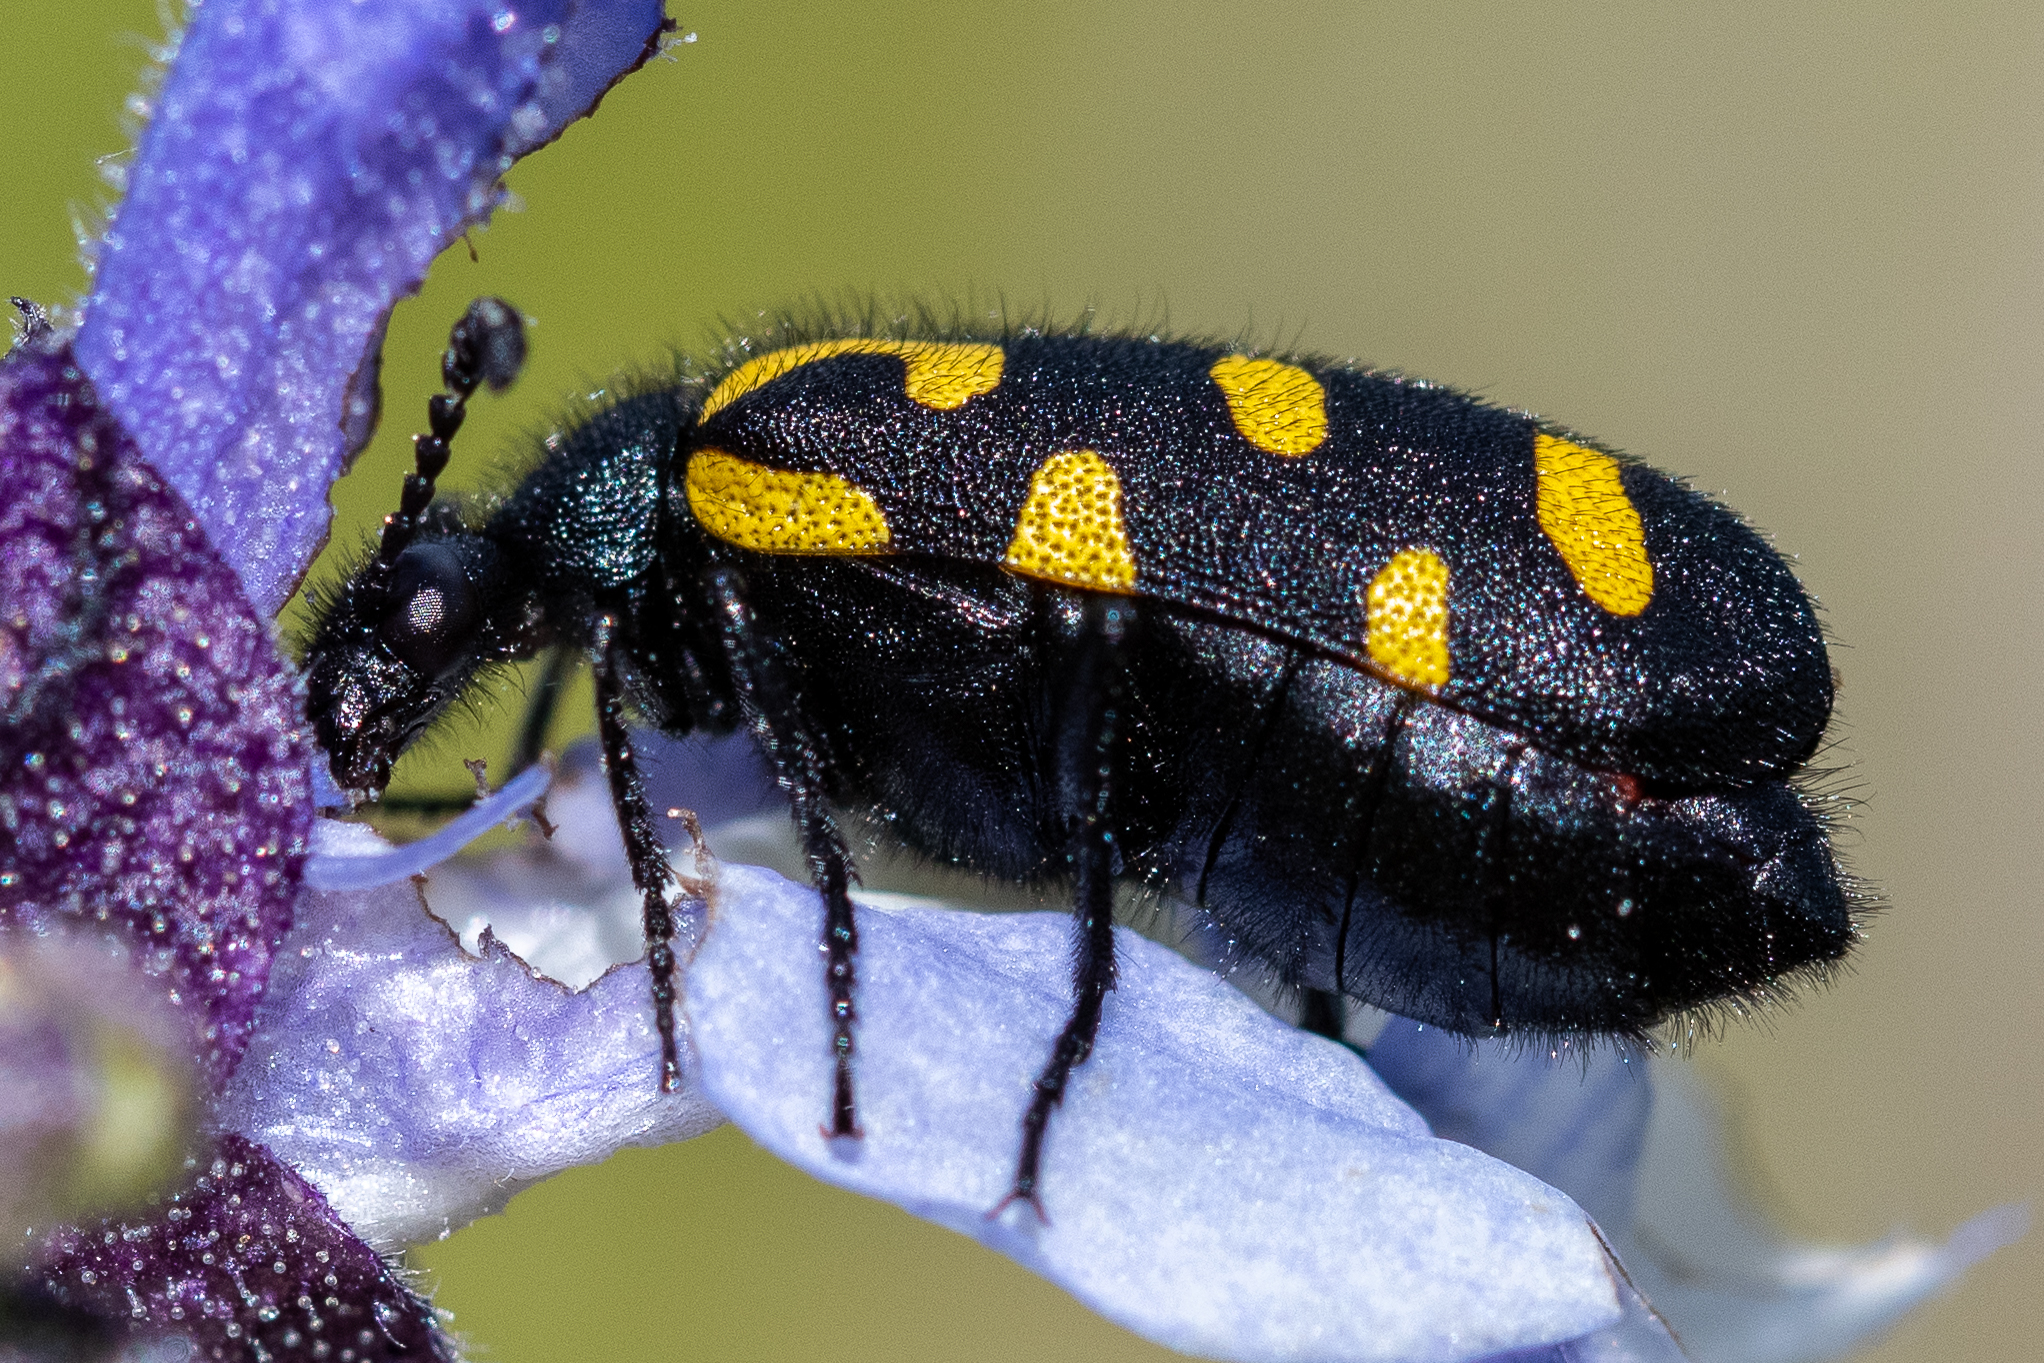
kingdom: Animalia
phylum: Arthropoda
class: Insecta
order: Coleoptera
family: Meloidae
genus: Ceroctis
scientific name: Ceroctis capensis
